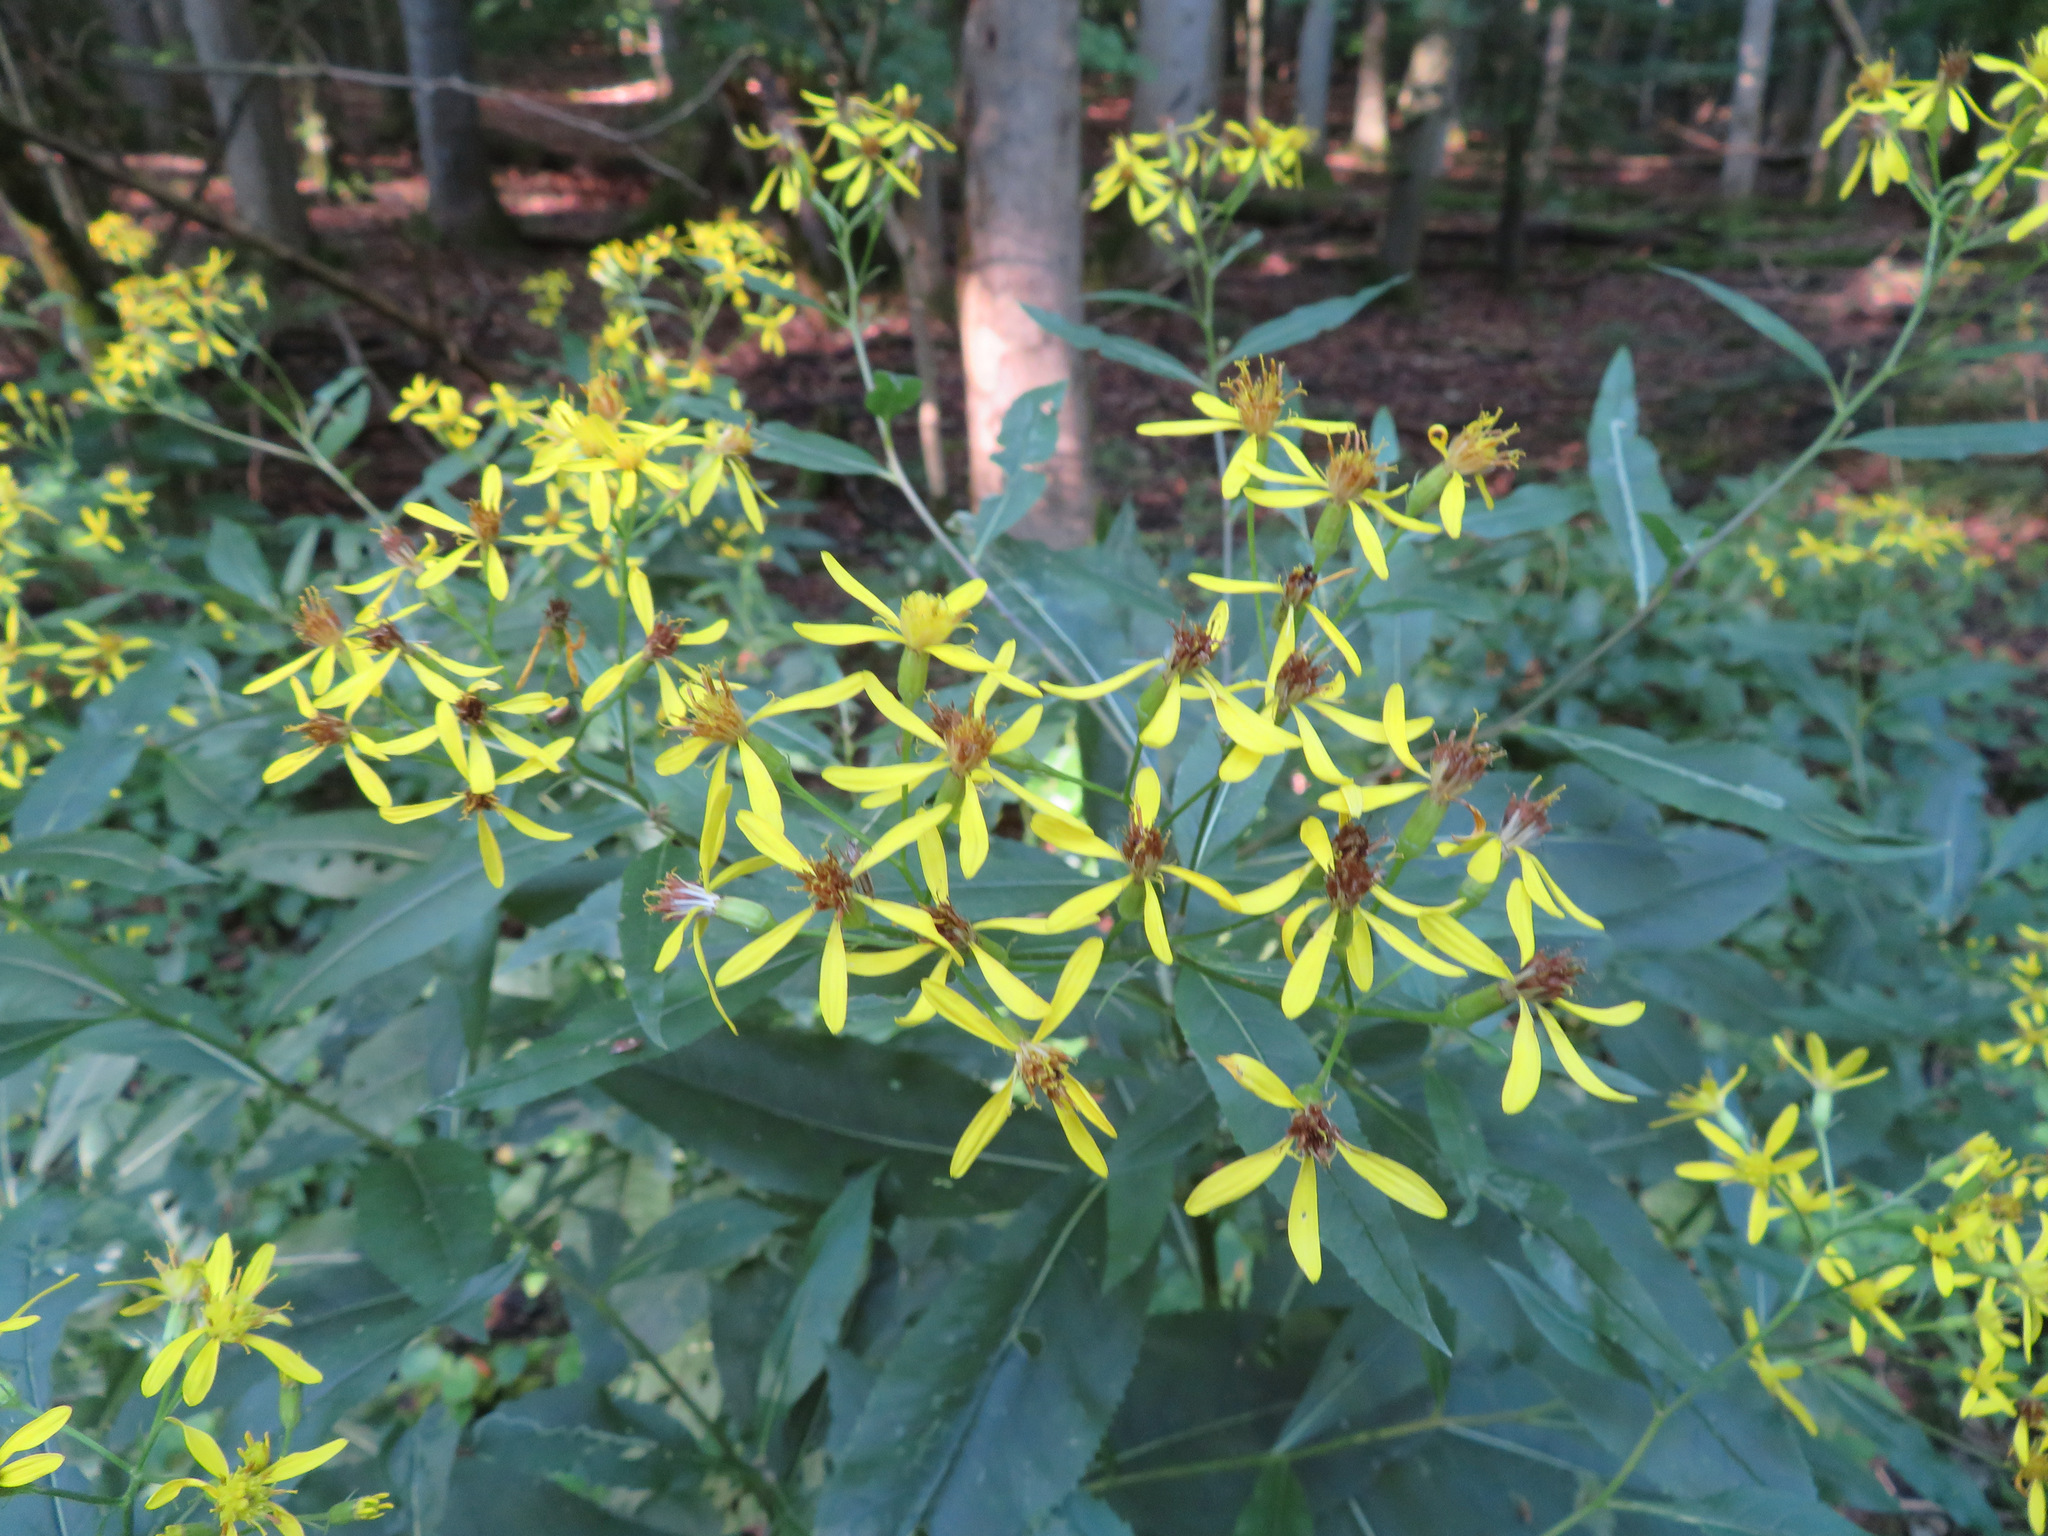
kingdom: Plantae
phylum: Tracheophyta
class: Magnoliopsida
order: Asterales
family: Asteraceae
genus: Senecio
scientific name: Senecio ovatus
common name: Wood ragwort
